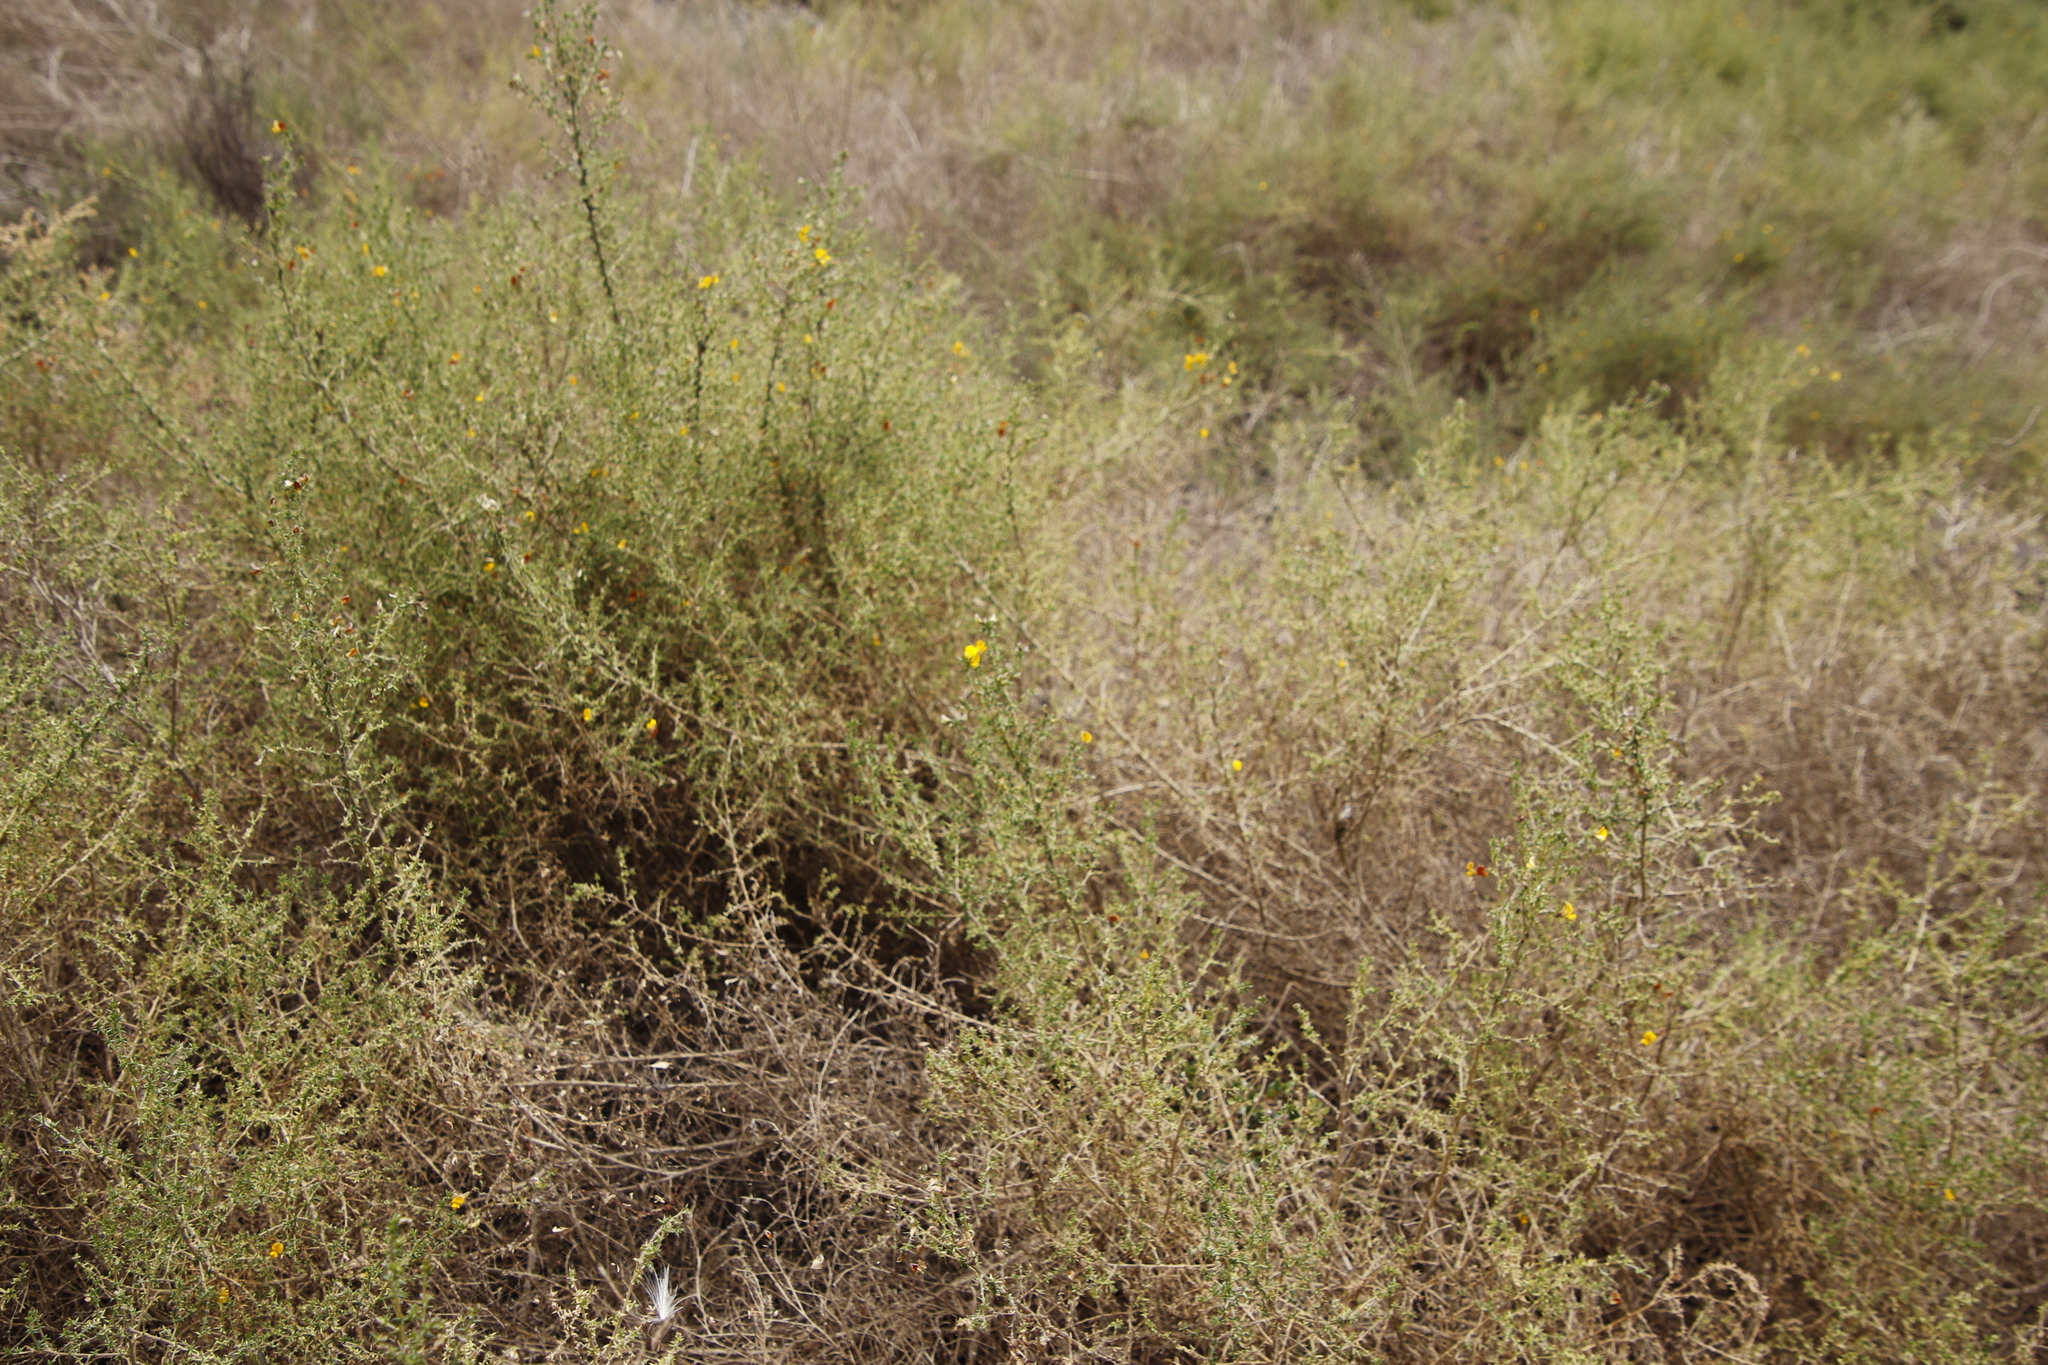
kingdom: Plantae
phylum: Tracheophyta
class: Magnoliopsida
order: Fabales
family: Fabaceae
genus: Aspalathus
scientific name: Aspalathus divaricata
